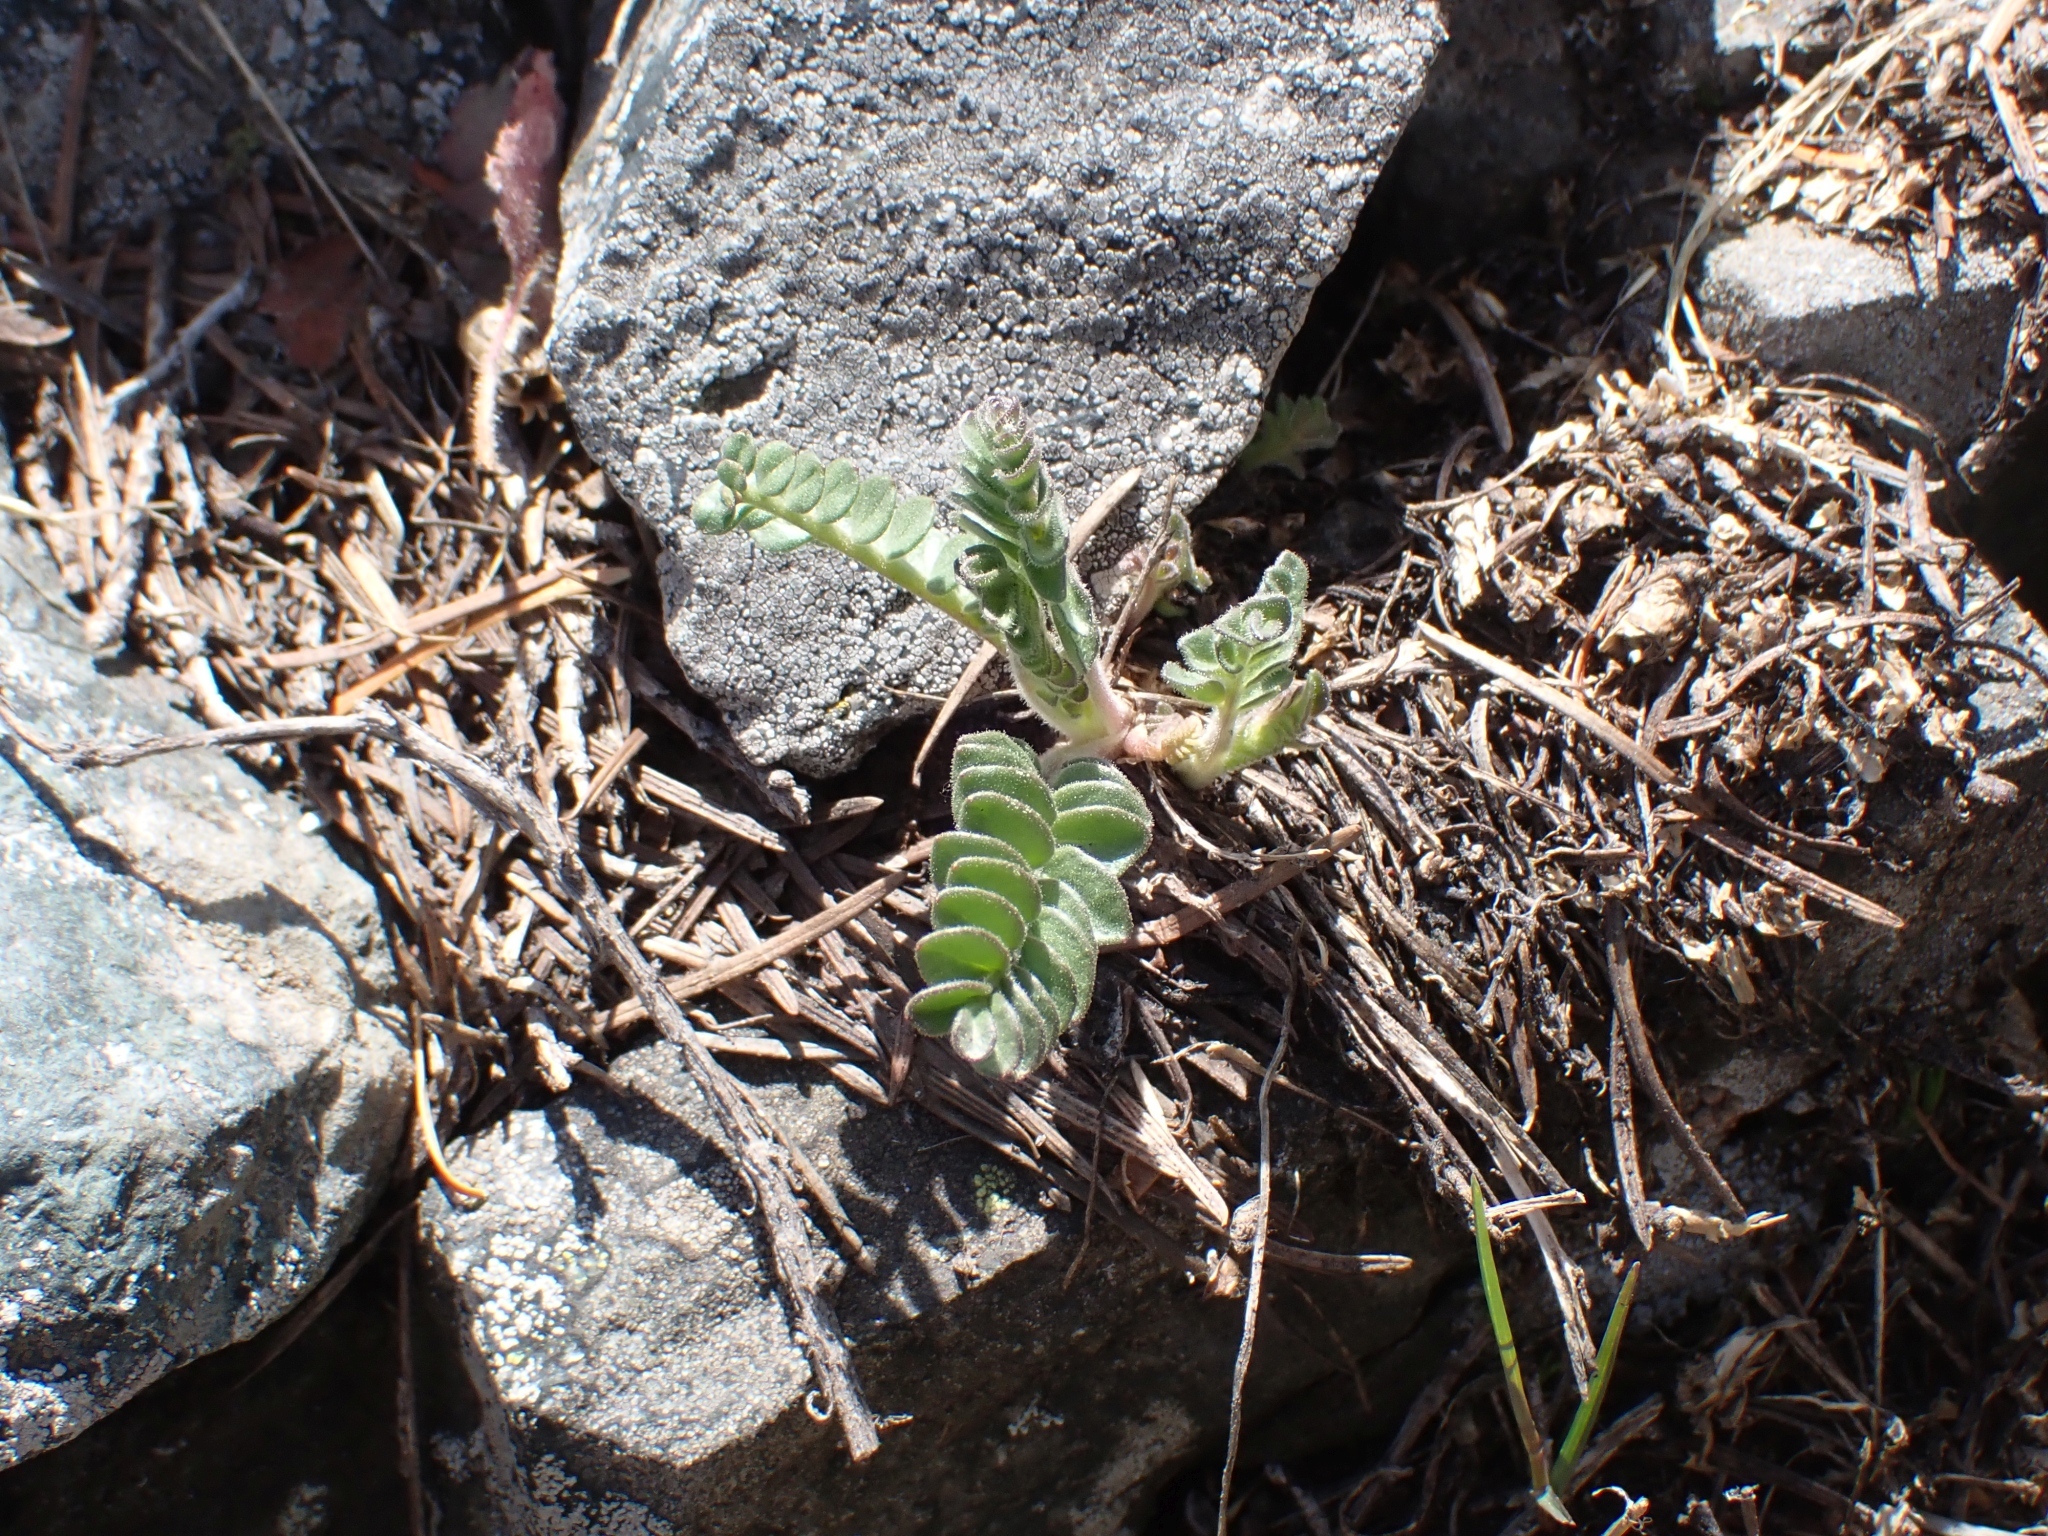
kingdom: Plantae
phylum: Tracheophyta
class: Magnoliopsida
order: Ericales
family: Polemoniaceae
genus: Polemonium
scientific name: Polemonium pulcherrimum
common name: Short jacob's-ladder
